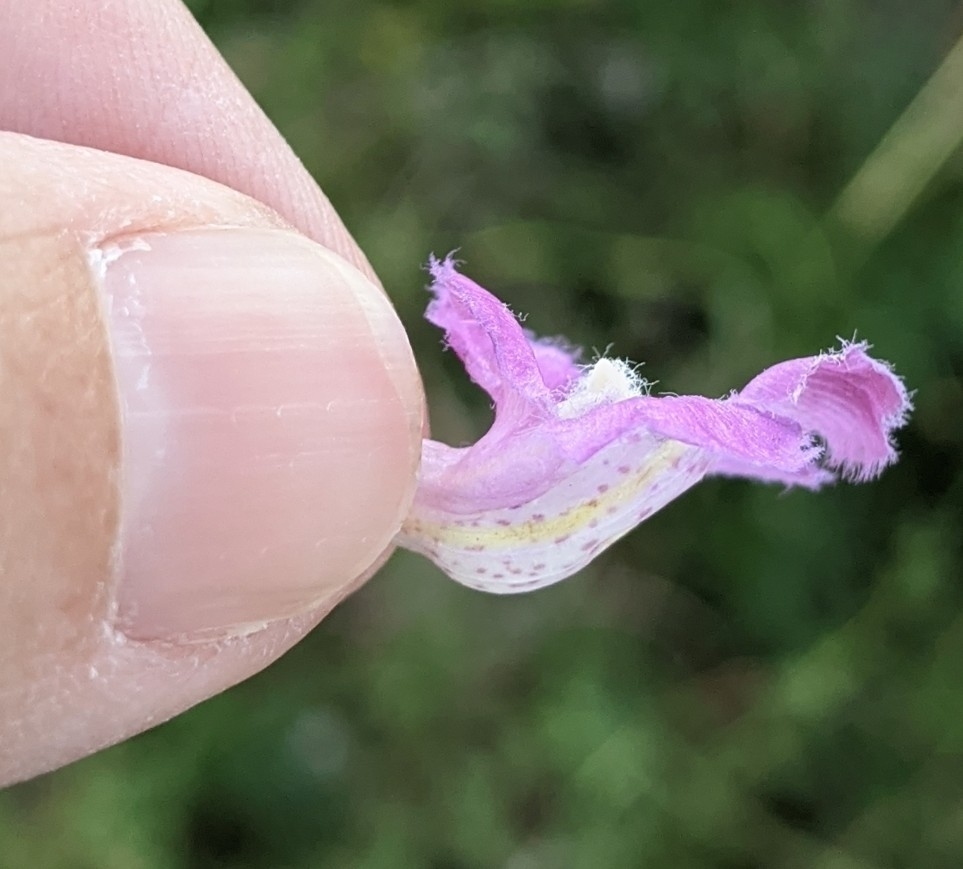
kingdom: Plantae
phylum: Tracheophyta
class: Magnoliopsida
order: Lamiales
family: Orobanchaceae
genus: Agalinis
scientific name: Agalinis strictifolia
